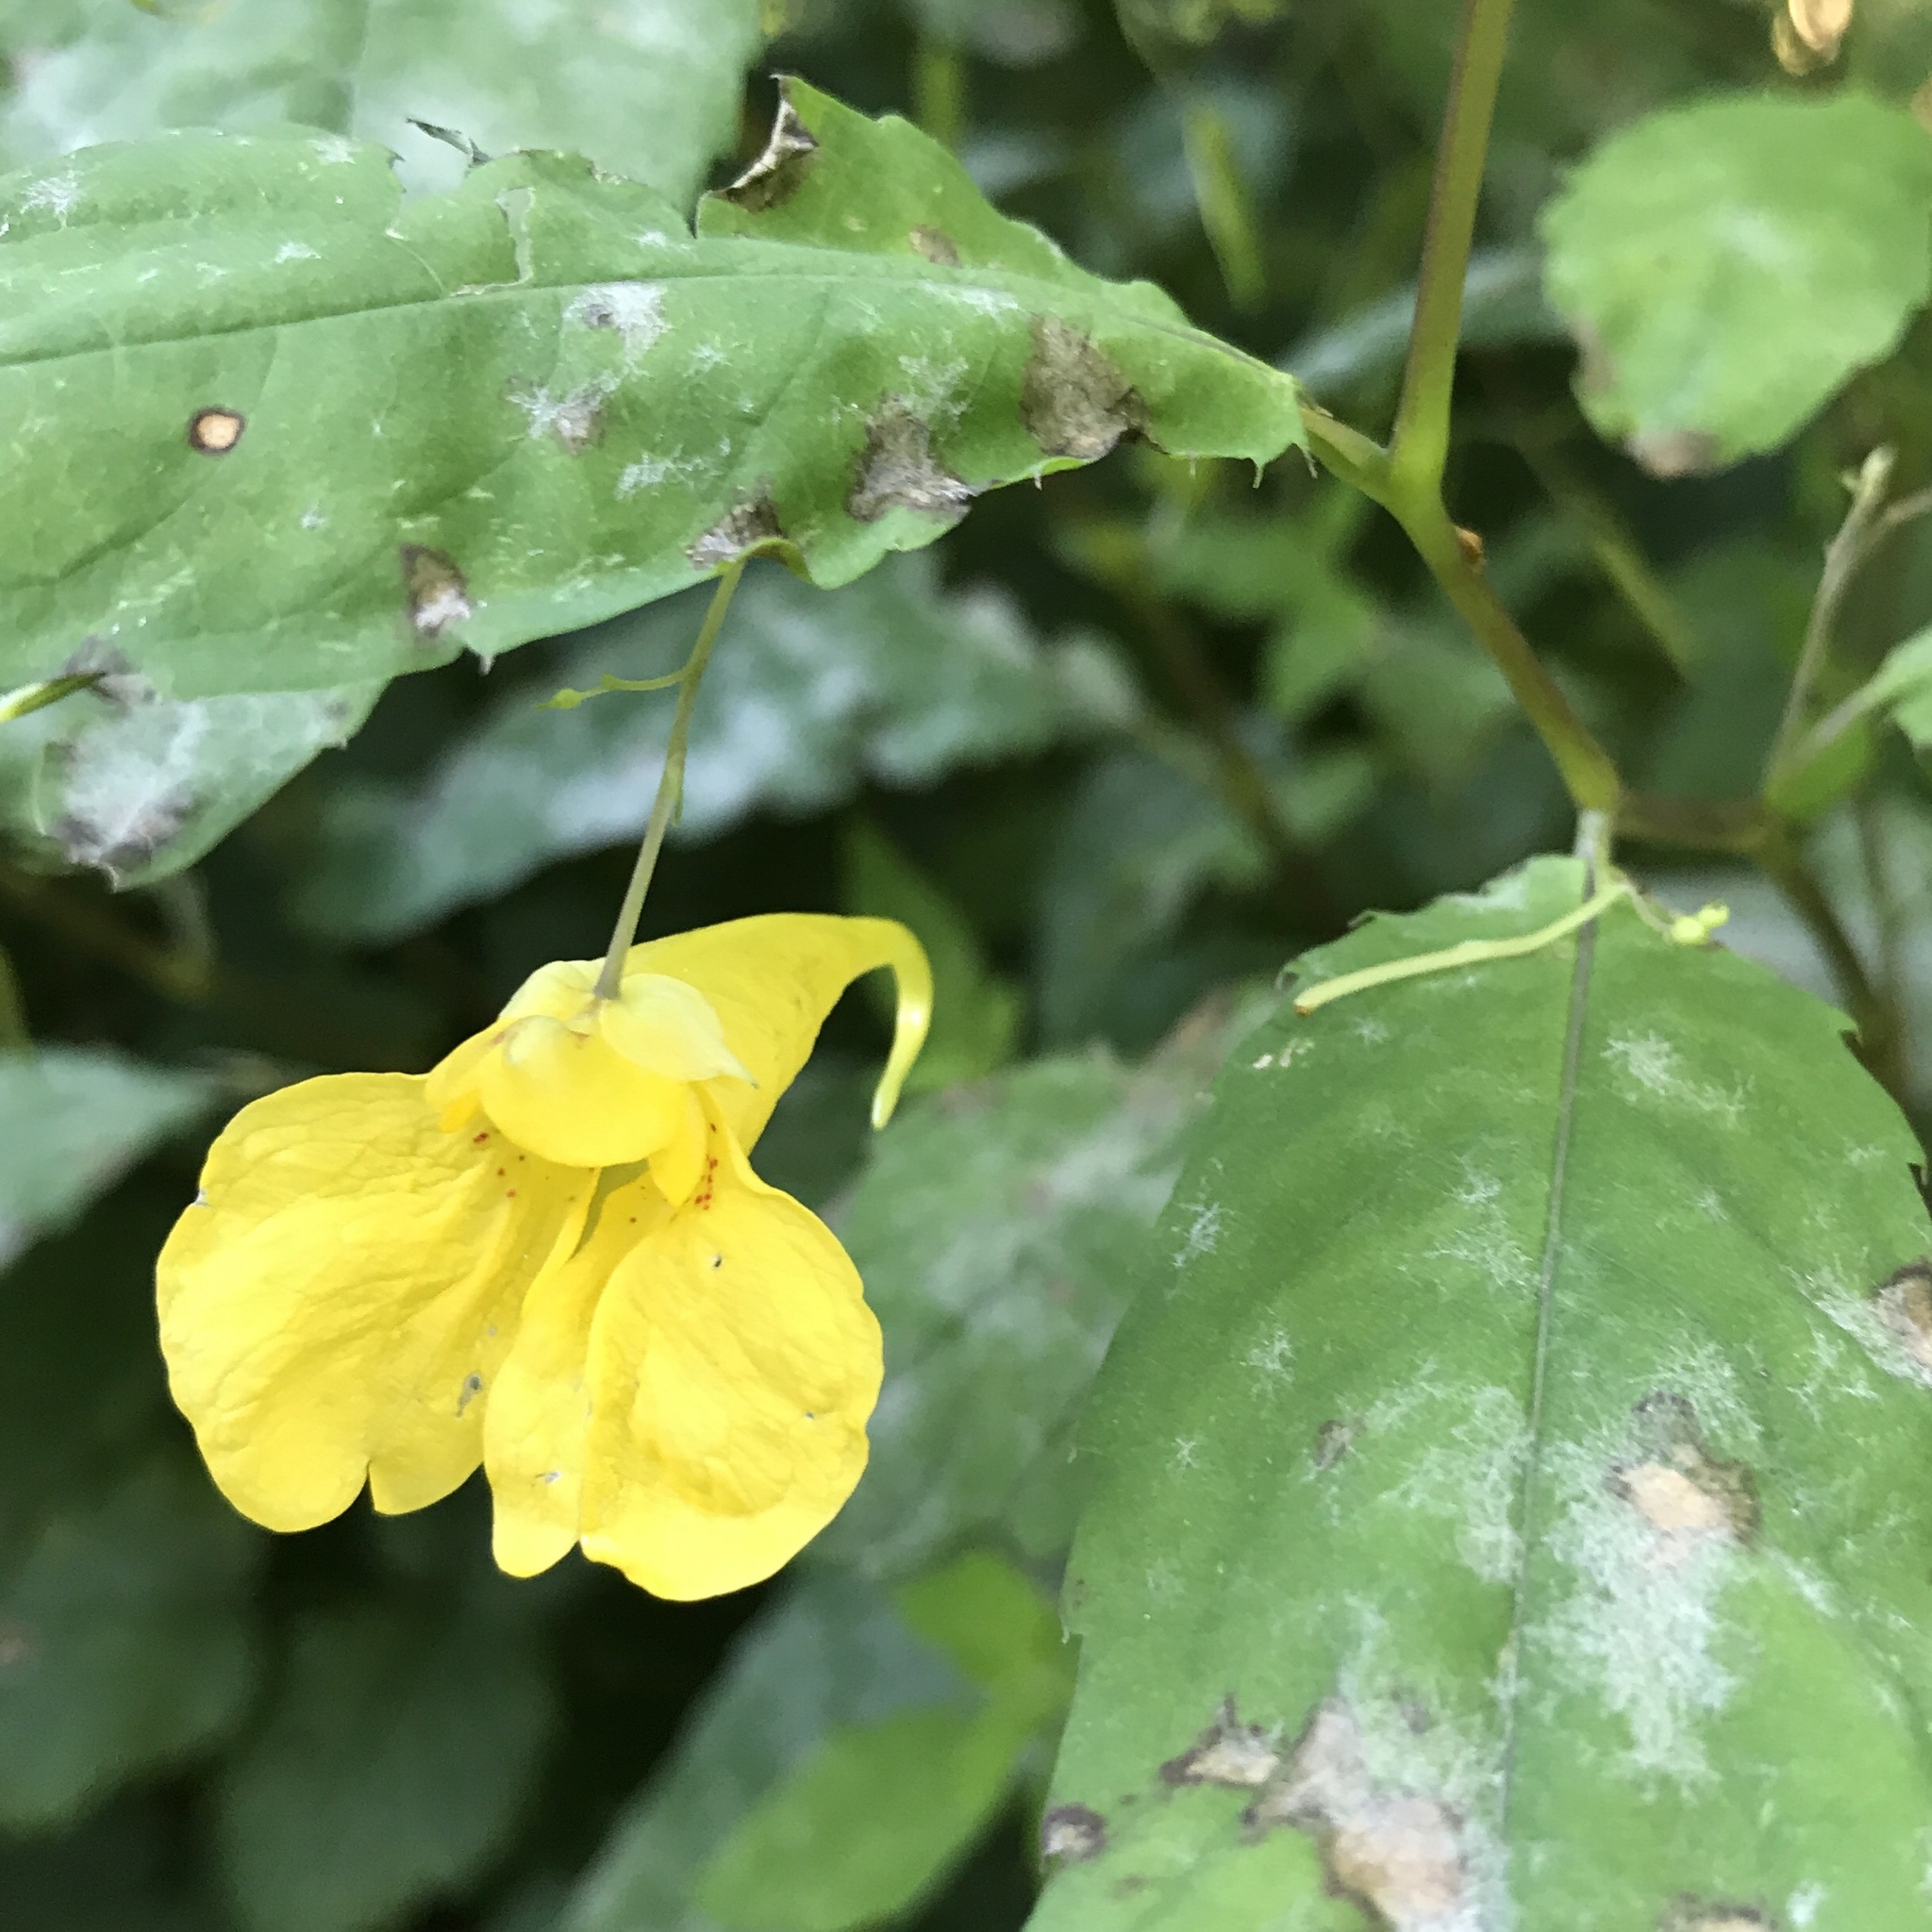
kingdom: Plantae
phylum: Tracheophyta
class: Magnoliopsida
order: Ericales
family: Balsaminaceae
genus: Impatiens
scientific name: Impatiens noli-tangere
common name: Touch-me-not balsam
